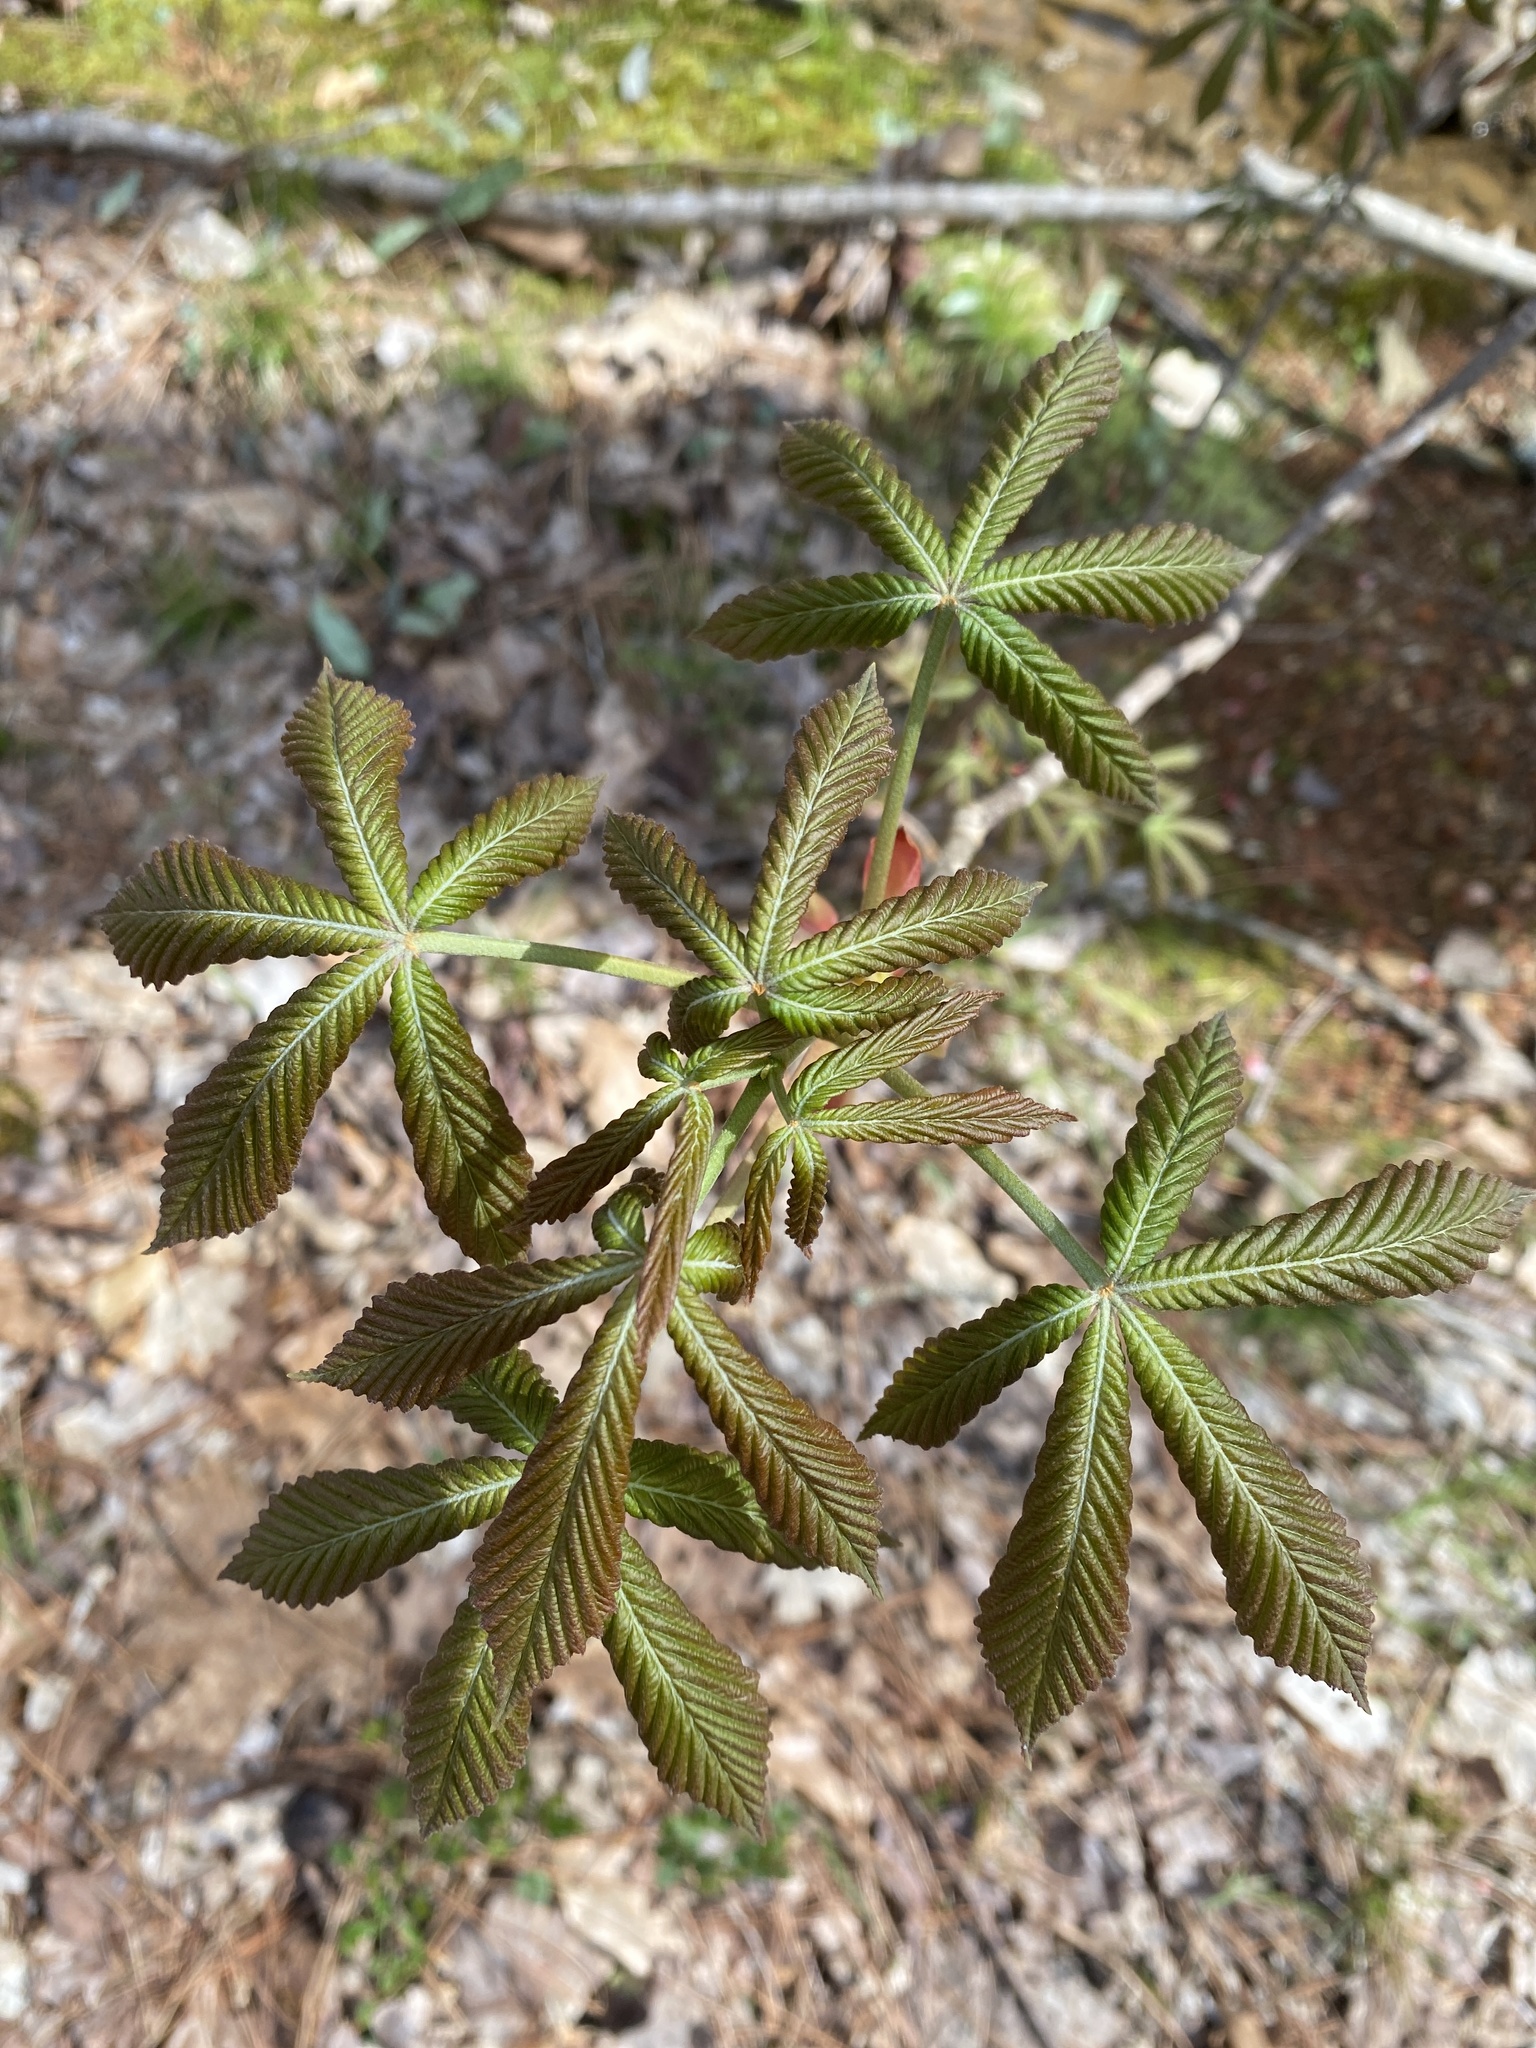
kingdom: Plantae
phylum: Tracheophyta
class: Magnoliopsida
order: Sapindales
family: Sapindaceae
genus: Aesculus
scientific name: Aesculus sylvatica
